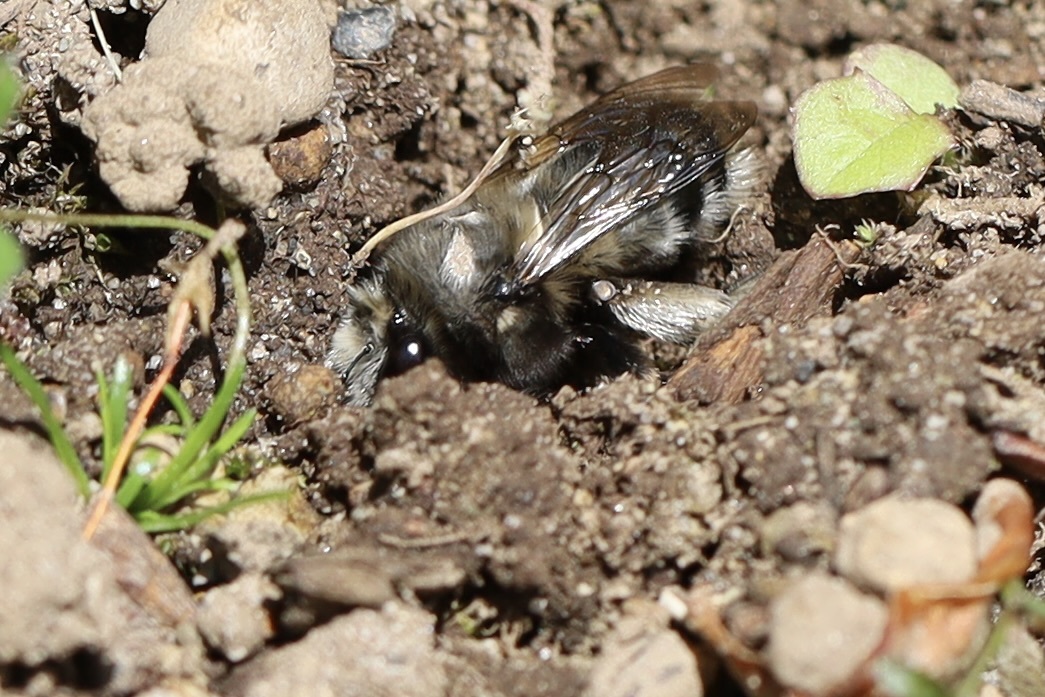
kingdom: Animalia
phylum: Arthropoda
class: Insecta
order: Hymenoptera
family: Apidae
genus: Anthophora
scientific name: Anthophora pacifica
